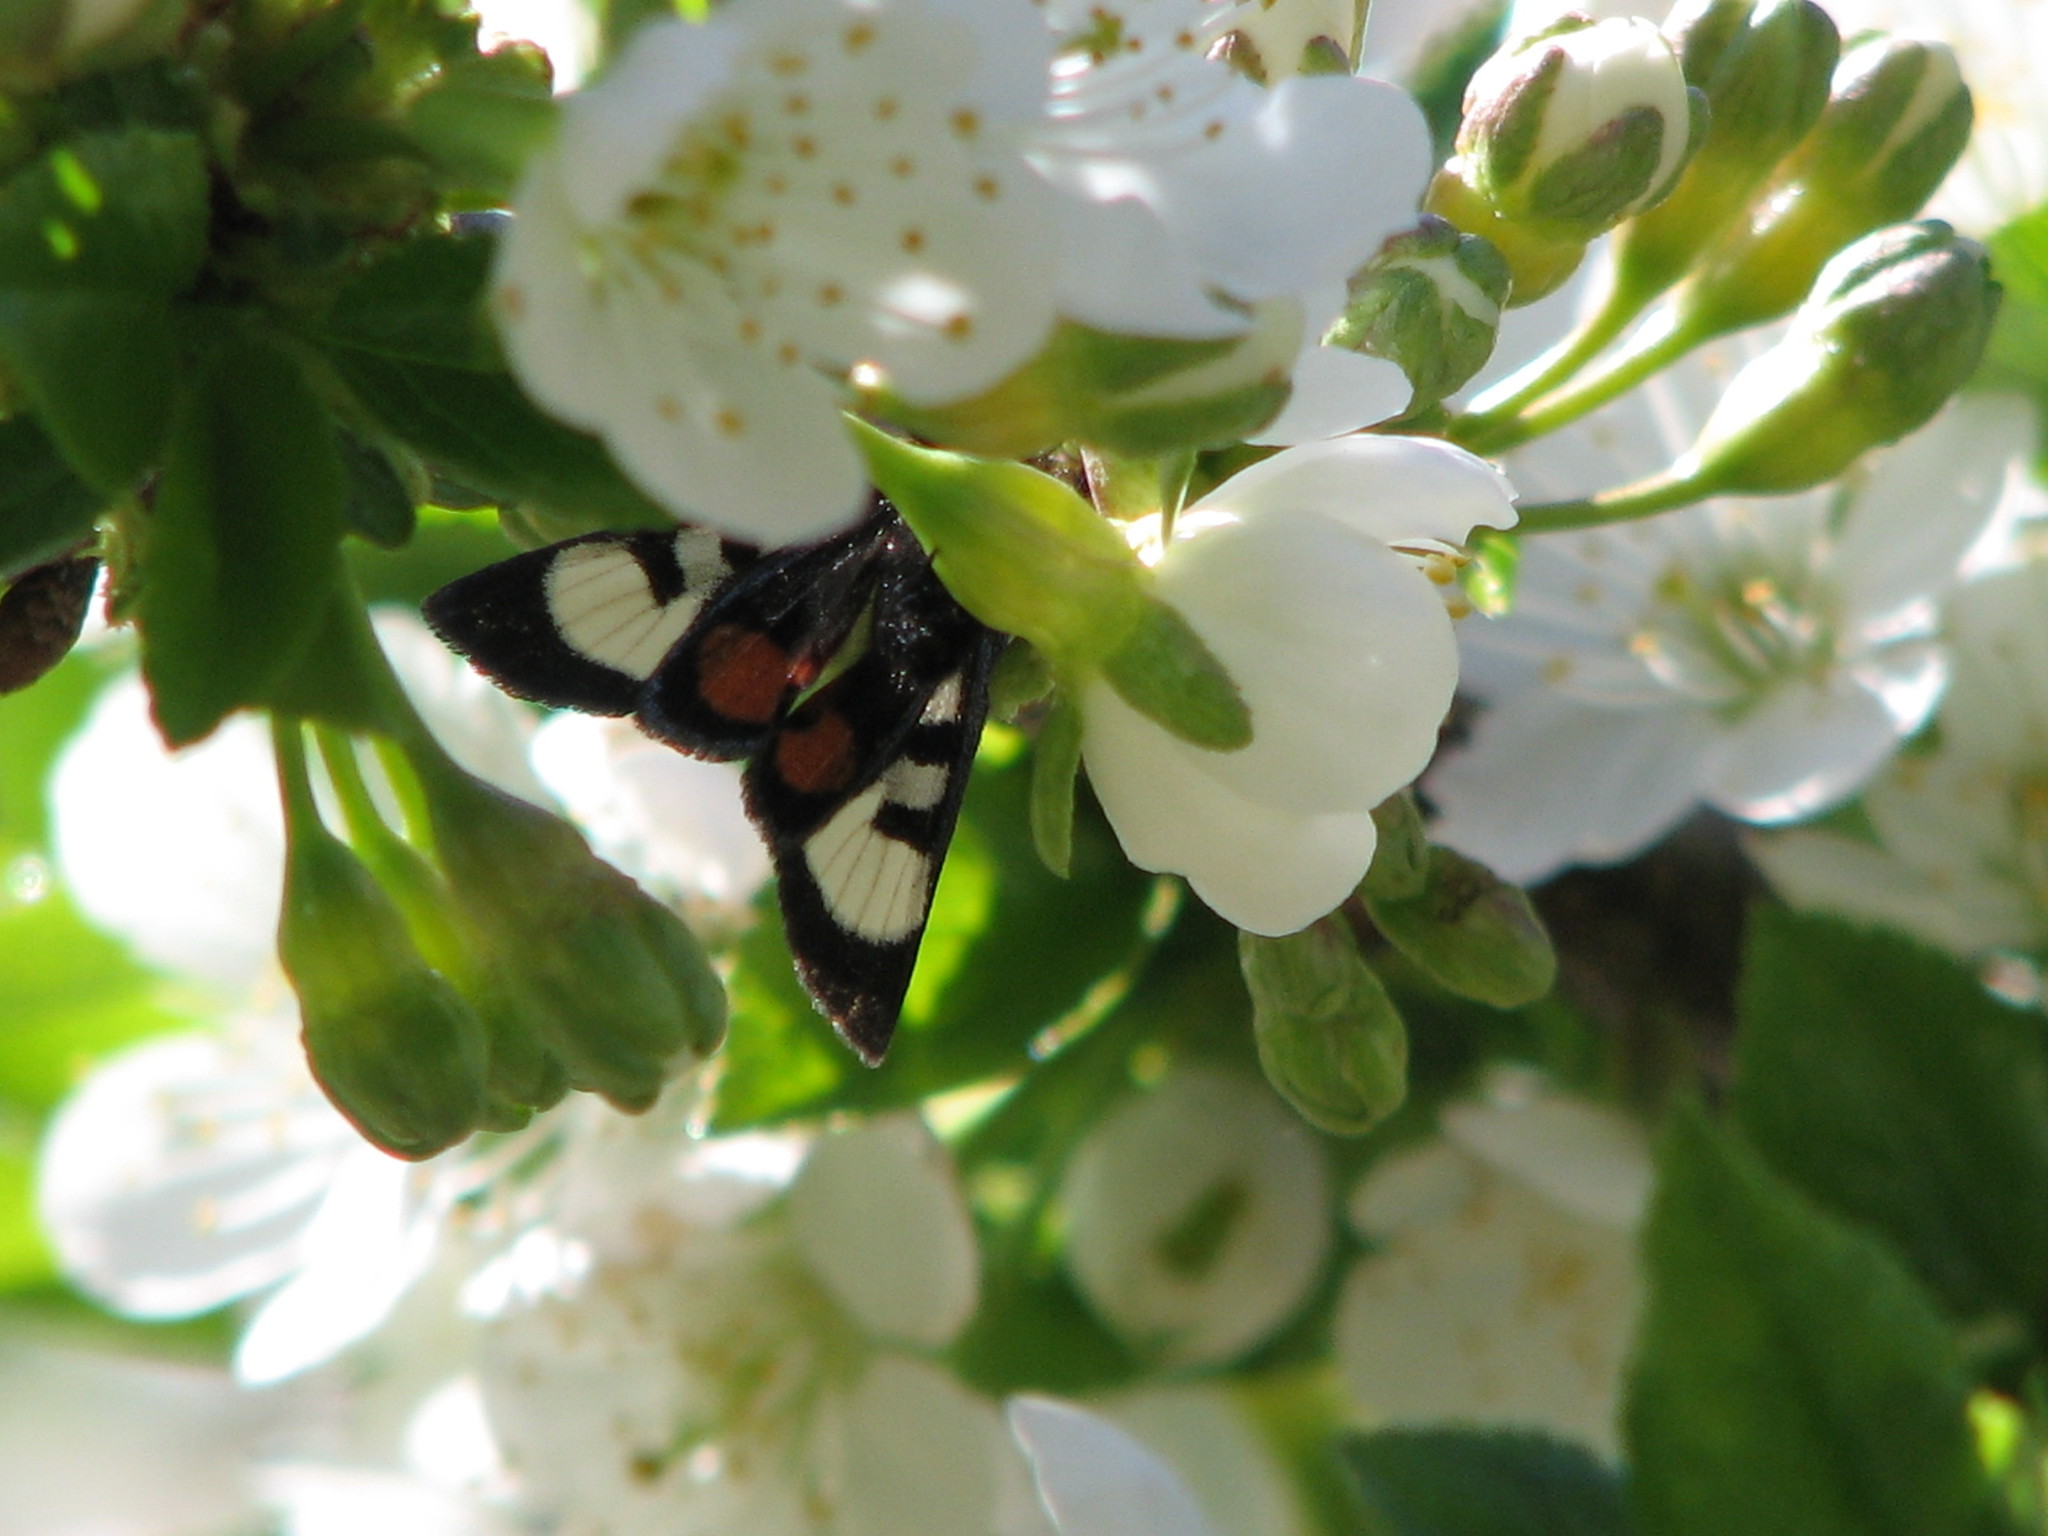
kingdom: Animalia
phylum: Arthropoda
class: Insecta
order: Lepidoptera
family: Noctuidae
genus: Psychomorpha
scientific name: Psychomorpha epimenis
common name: Grapevine epimenis moth
